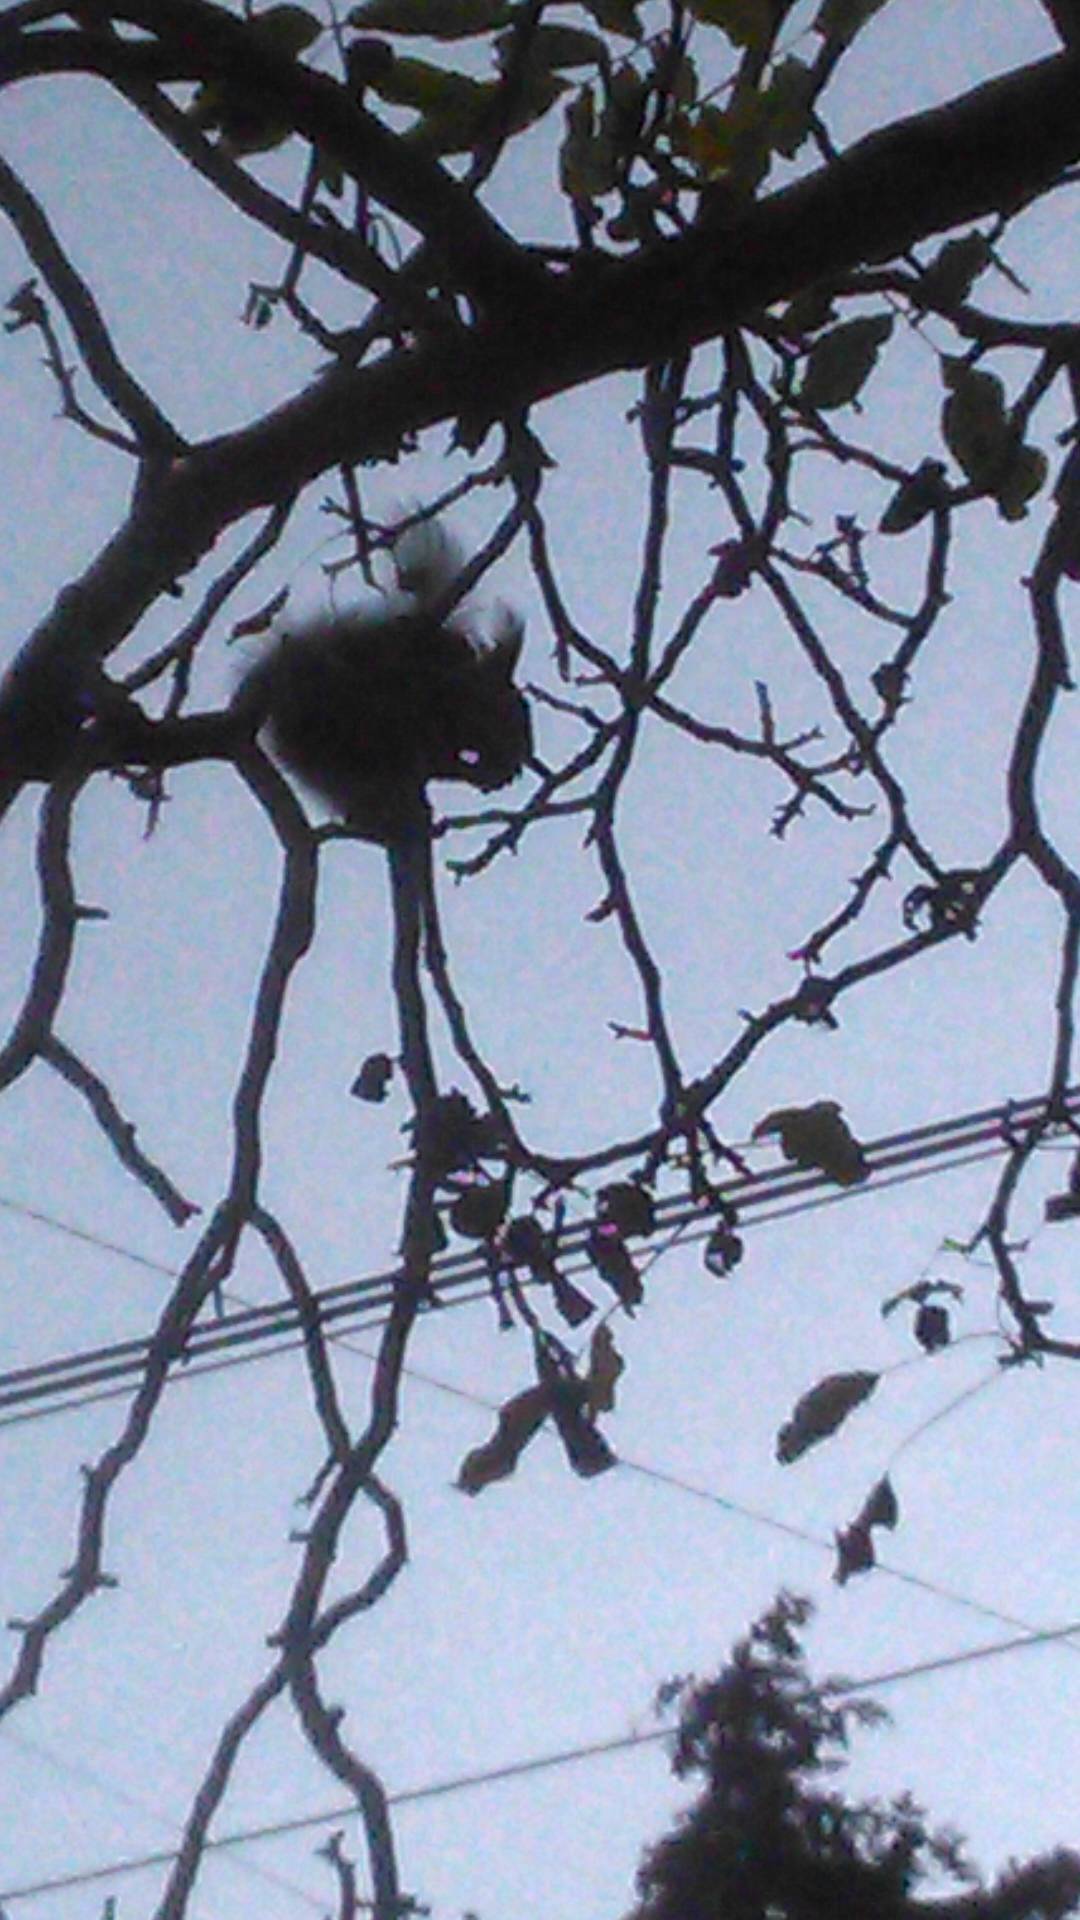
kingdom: Animalia
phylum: Chordata
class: Mammalia
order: Rodentia
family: Sciuridae
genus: Sciurus
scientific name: Sciurus vulgaris
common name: Eurasian red squirrel
